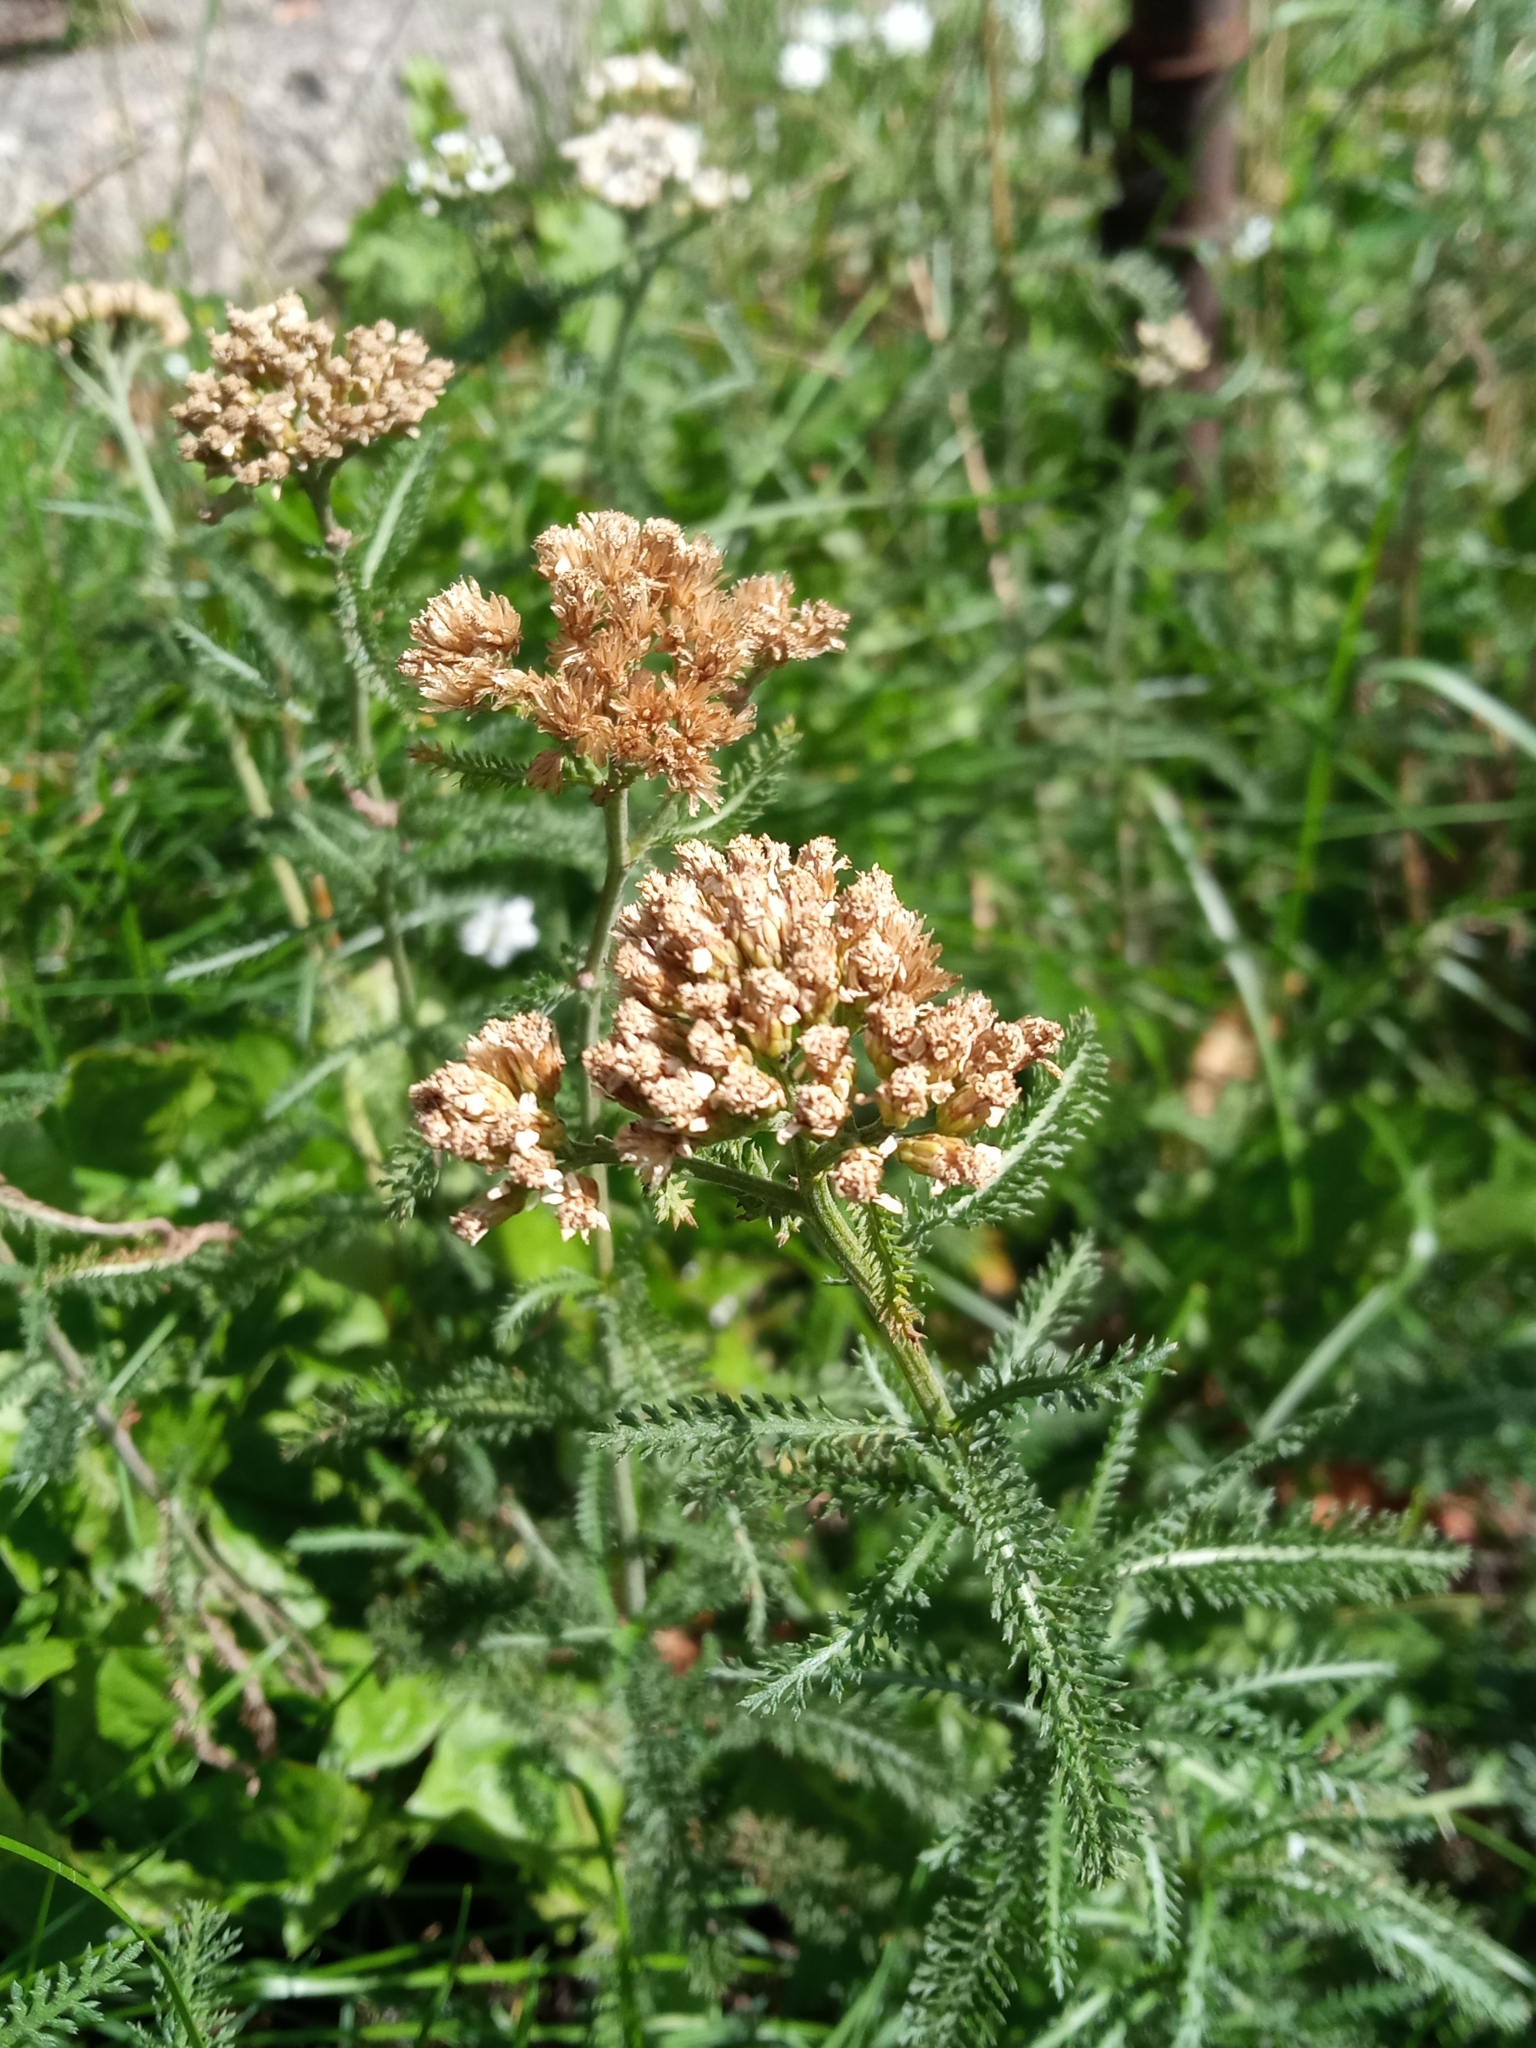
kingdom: Plantae
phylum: Tracheophyta
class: Magnoliopsida
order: Asterales
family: Asteraceae
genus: Achillea
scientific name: Achillea millefolium
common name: Yarrow
